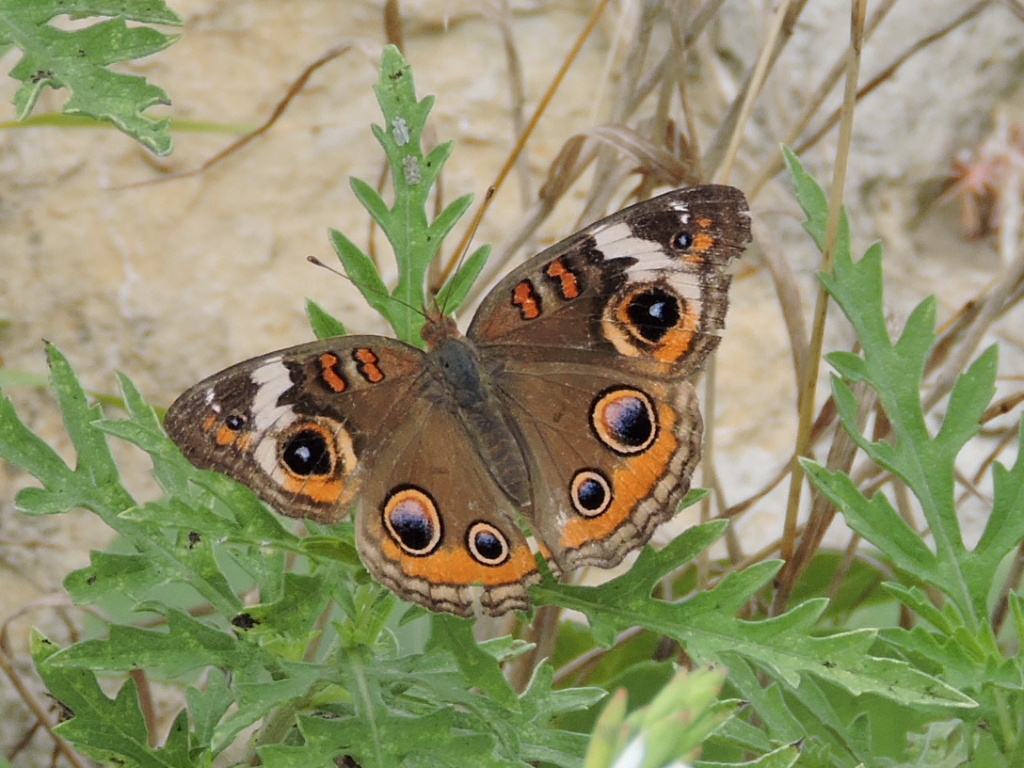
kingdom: Animalia
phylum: Arthropoda
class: Insecta
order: Lepidoptera
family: Nymphalidae
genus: Junonia
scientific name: Junonia coenia
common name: Common buckeye
